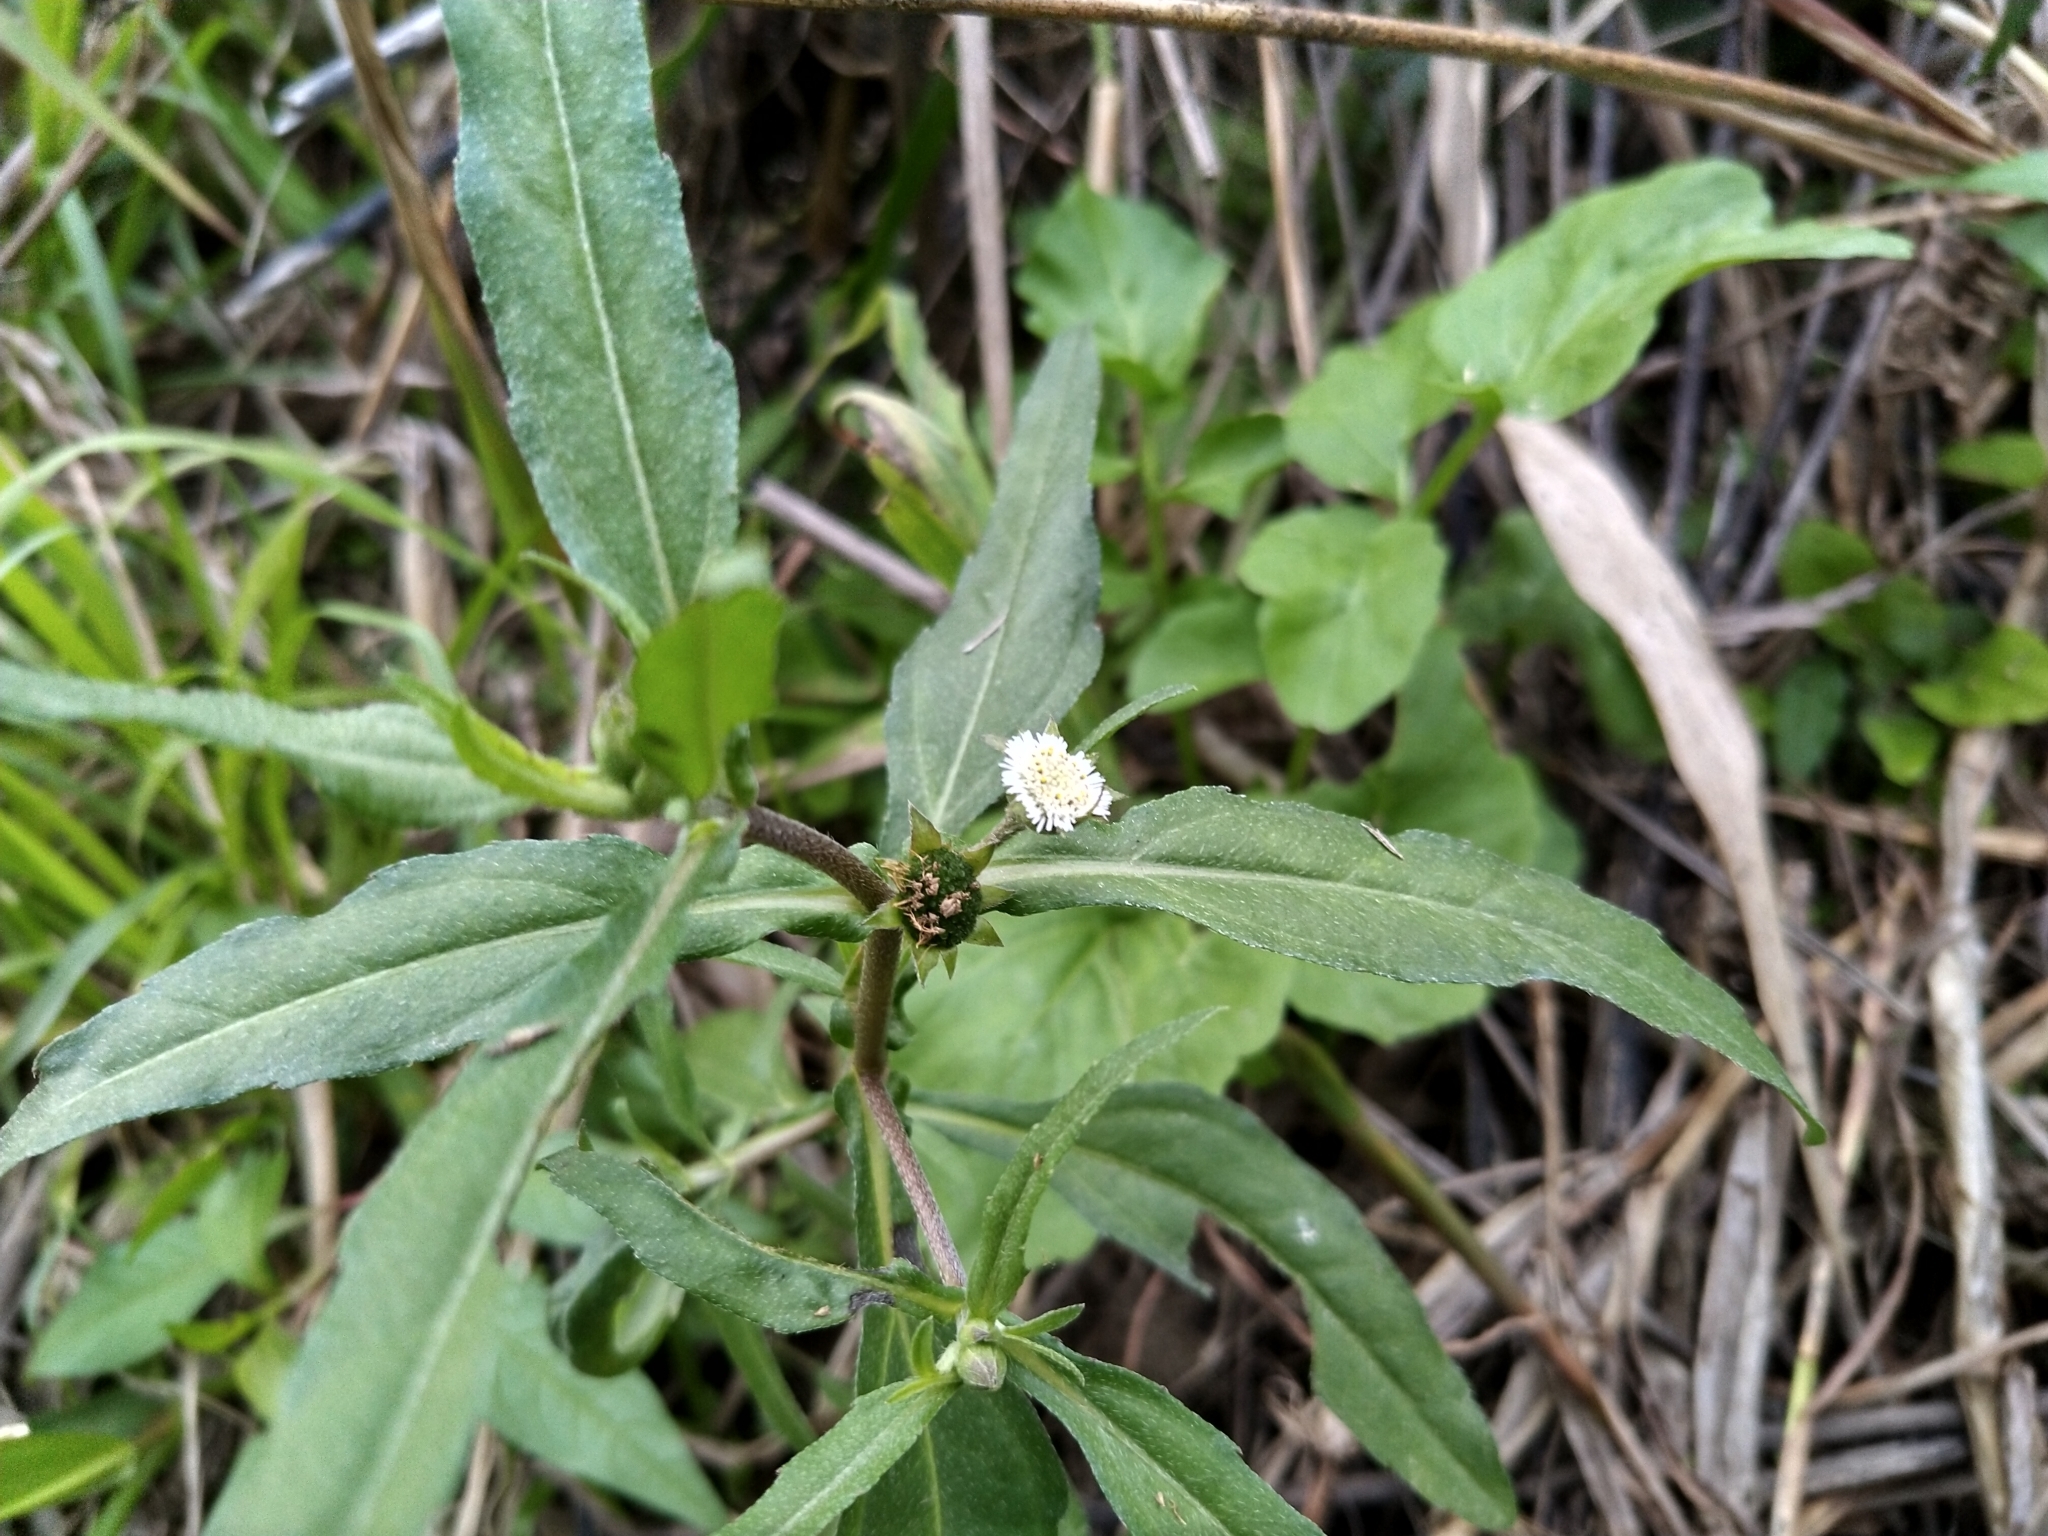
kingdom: Plantae
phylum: Tracheophyta
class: Magnoliopsida
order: Asterales
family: Asteraceae
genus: Eclipta
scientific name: Eclipta prostrata
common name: False daisy
